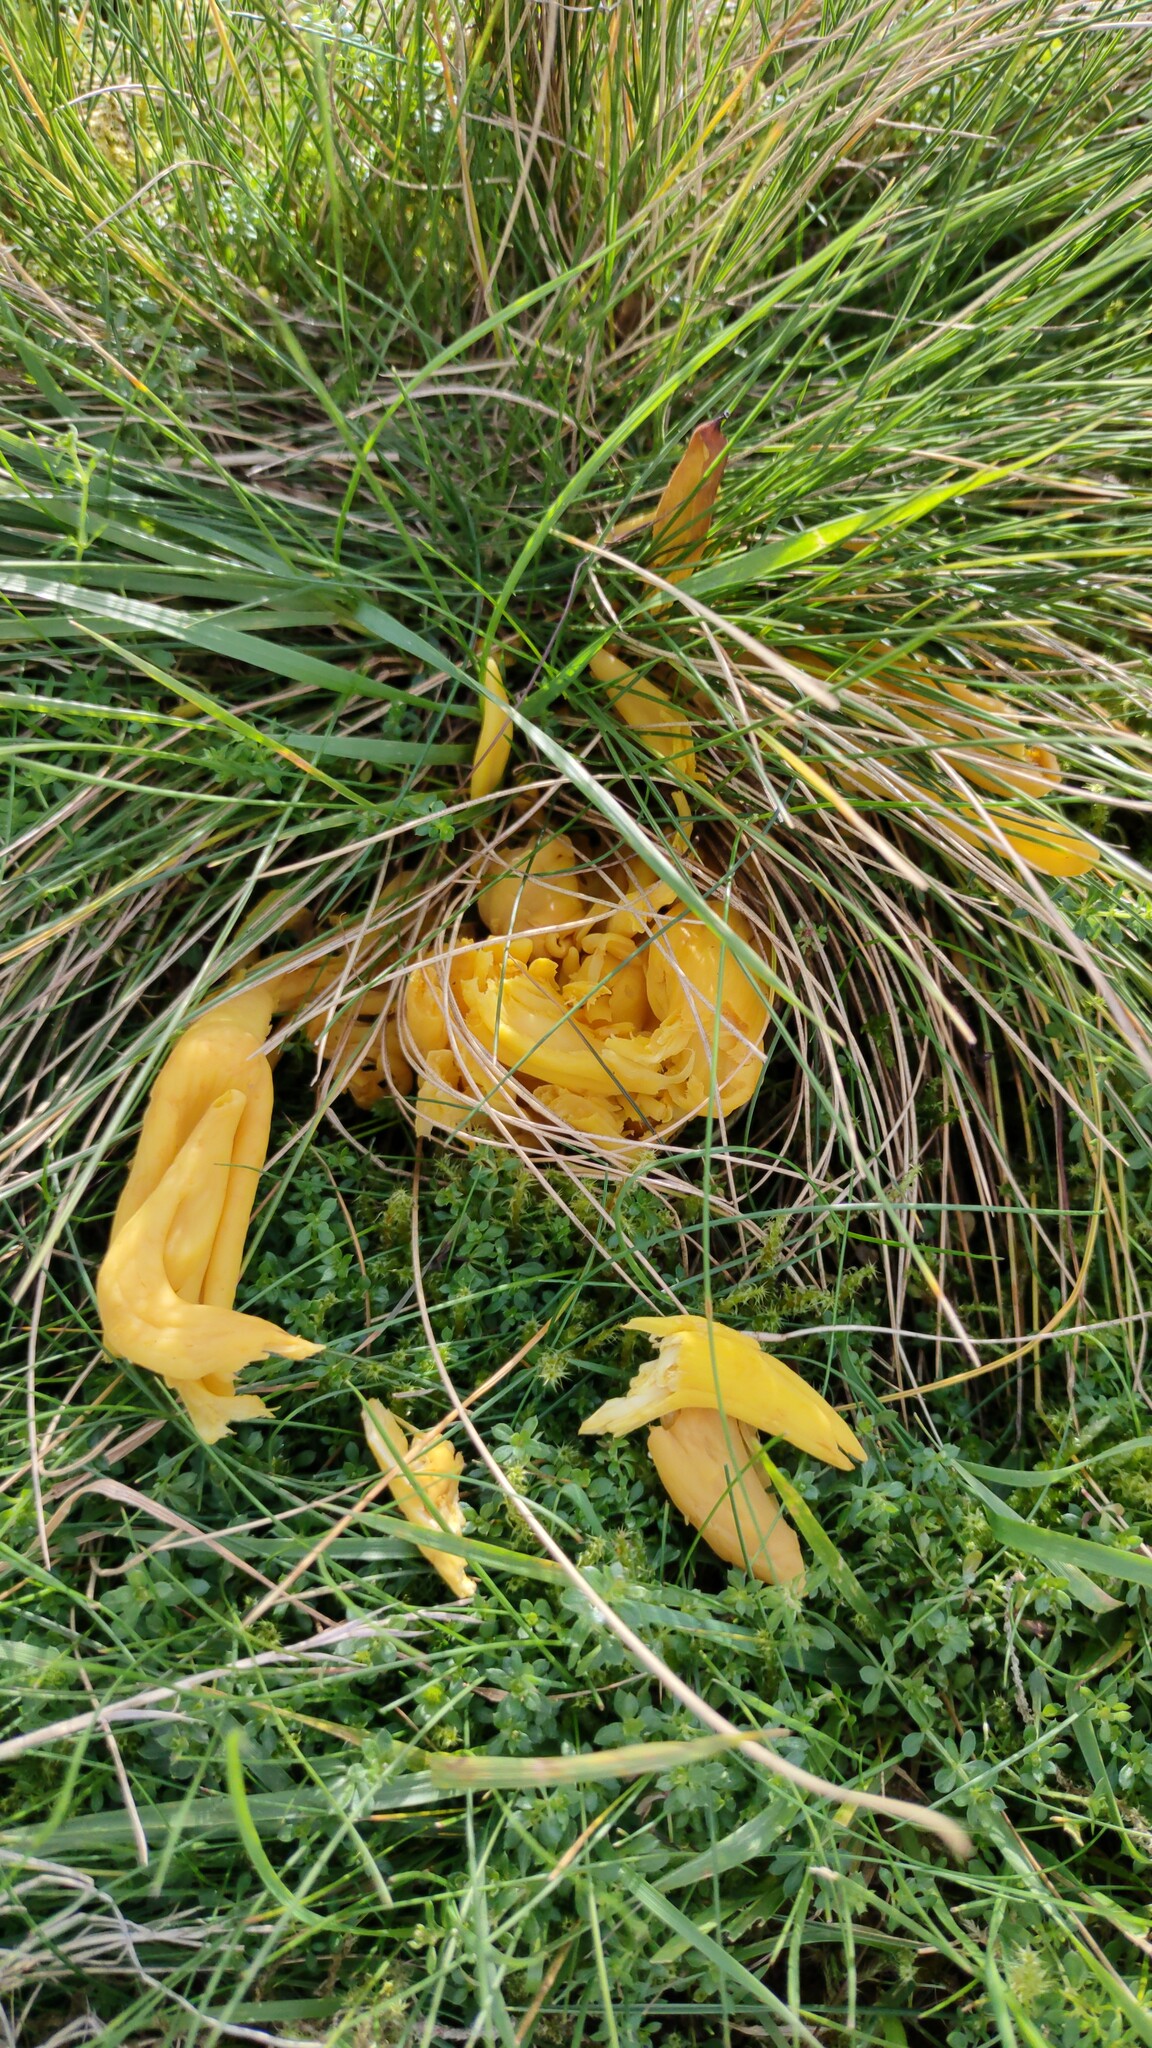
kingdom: Fungi
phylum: Basidiomycota
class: Agaricomycetes
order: Agaricales
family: Clavariaceae
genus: Clavulinopsis
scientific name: Clavulinopsis fusiformis
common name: Golden spindles
